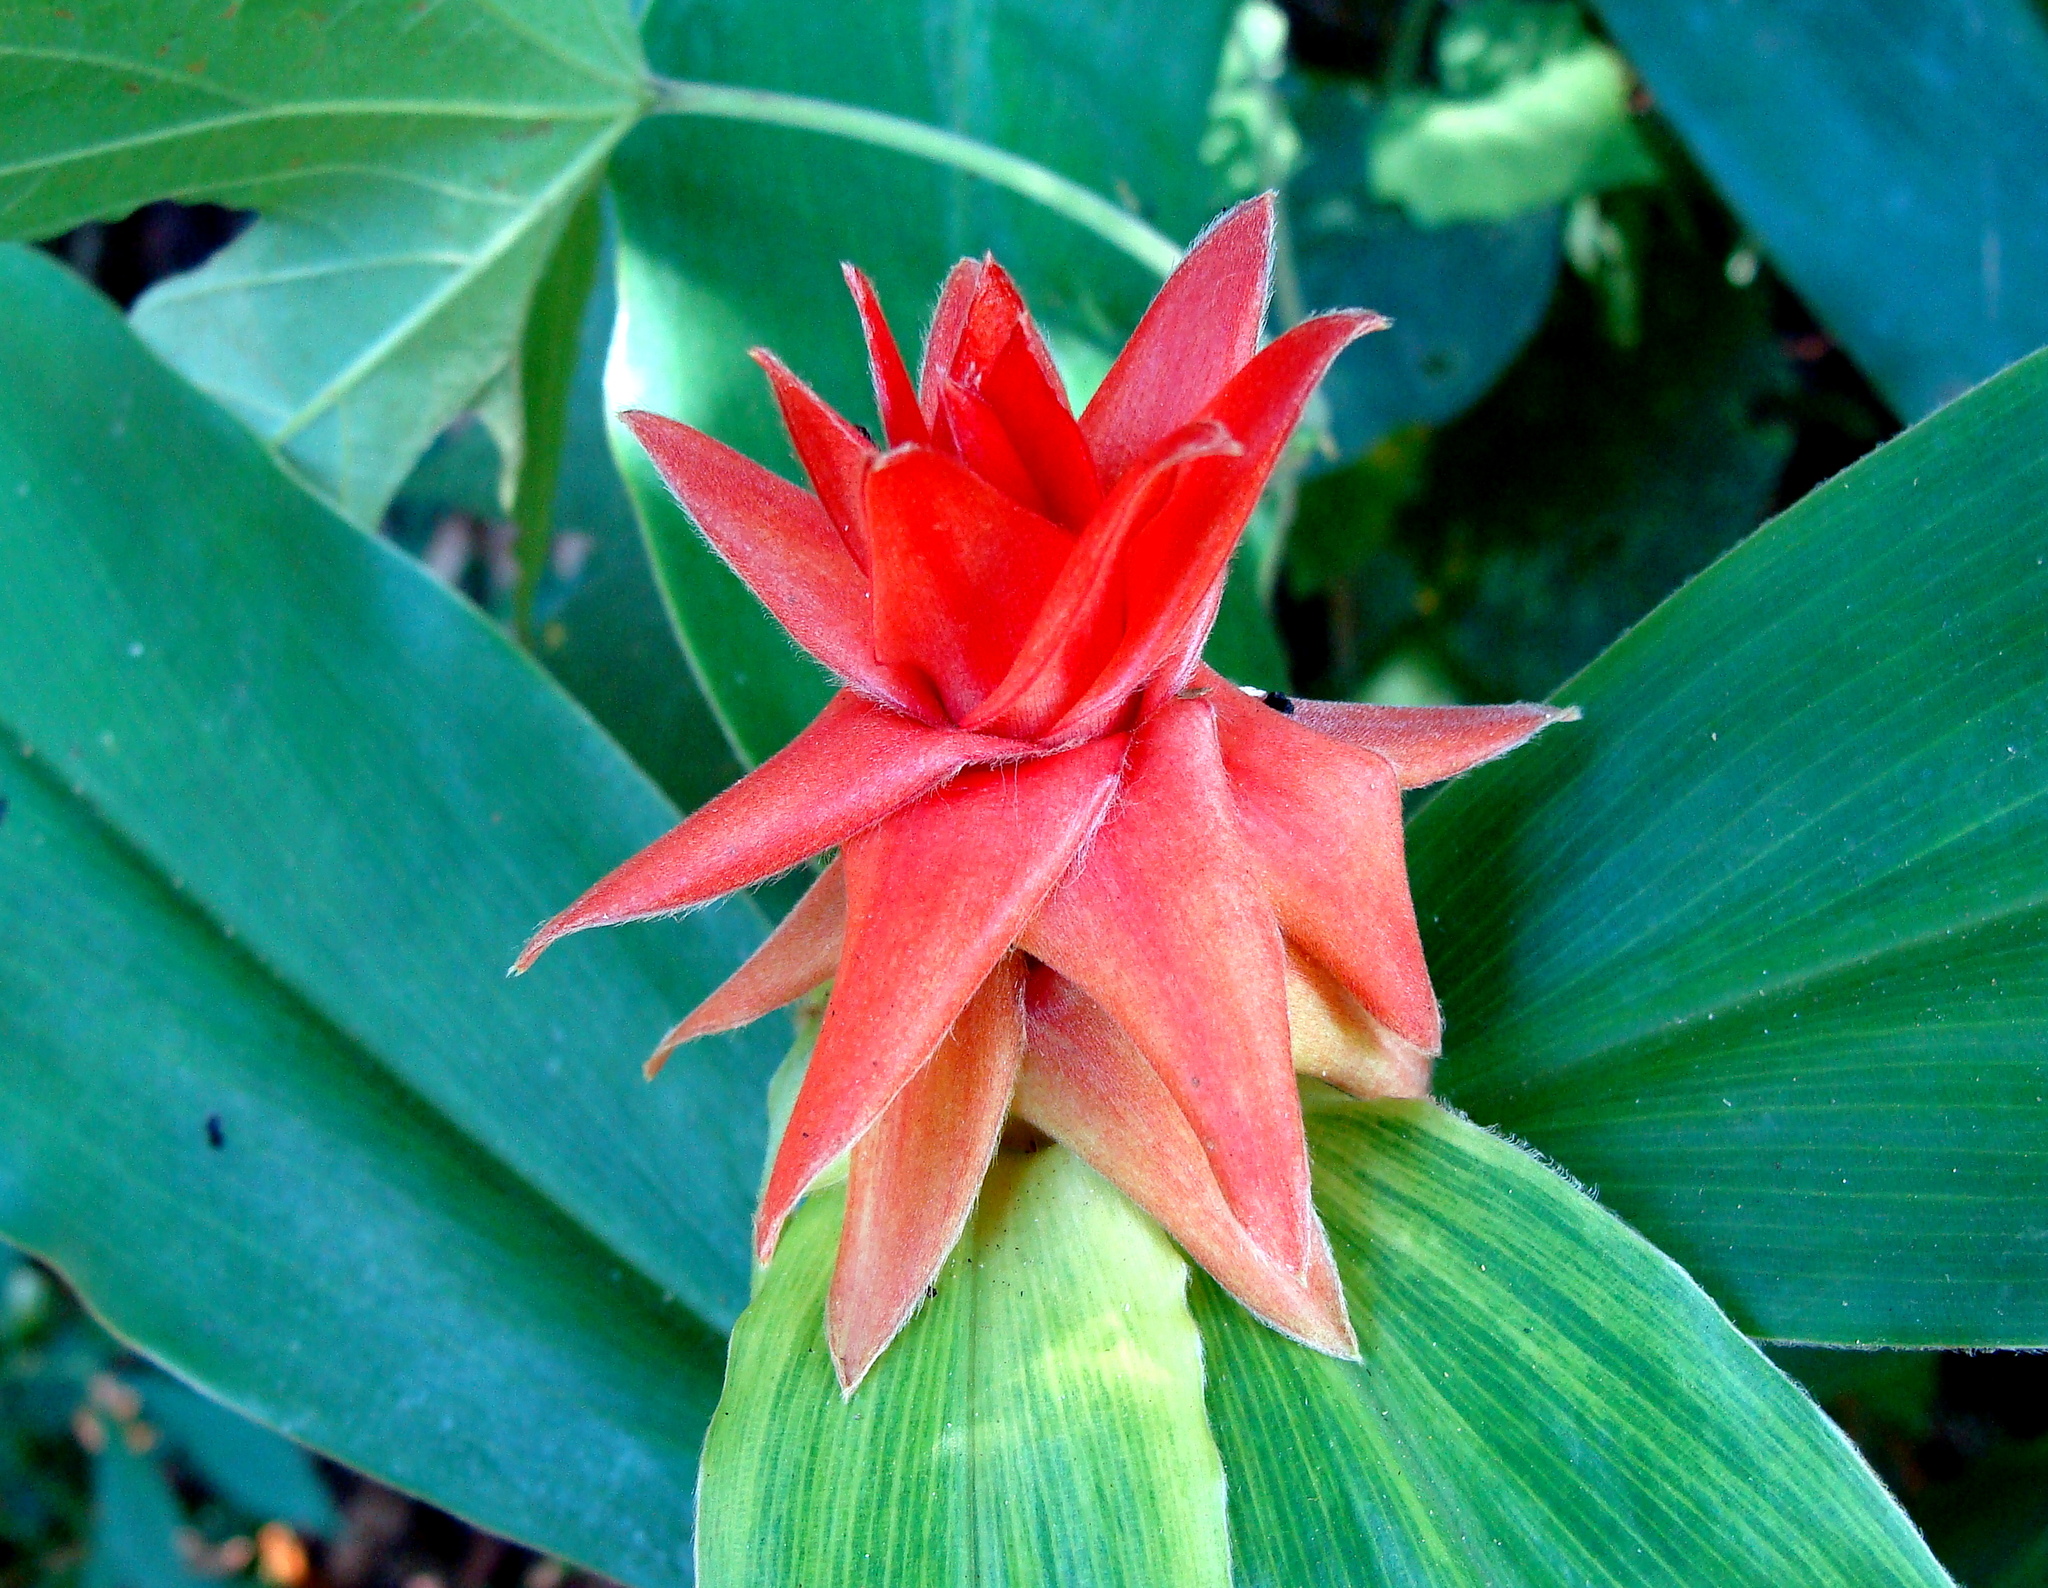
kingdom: Plantae
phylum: Tracheophyta
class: Liliopsida
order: Zingiberales
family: Costaceae
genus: Costus
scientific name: Costus comosus
